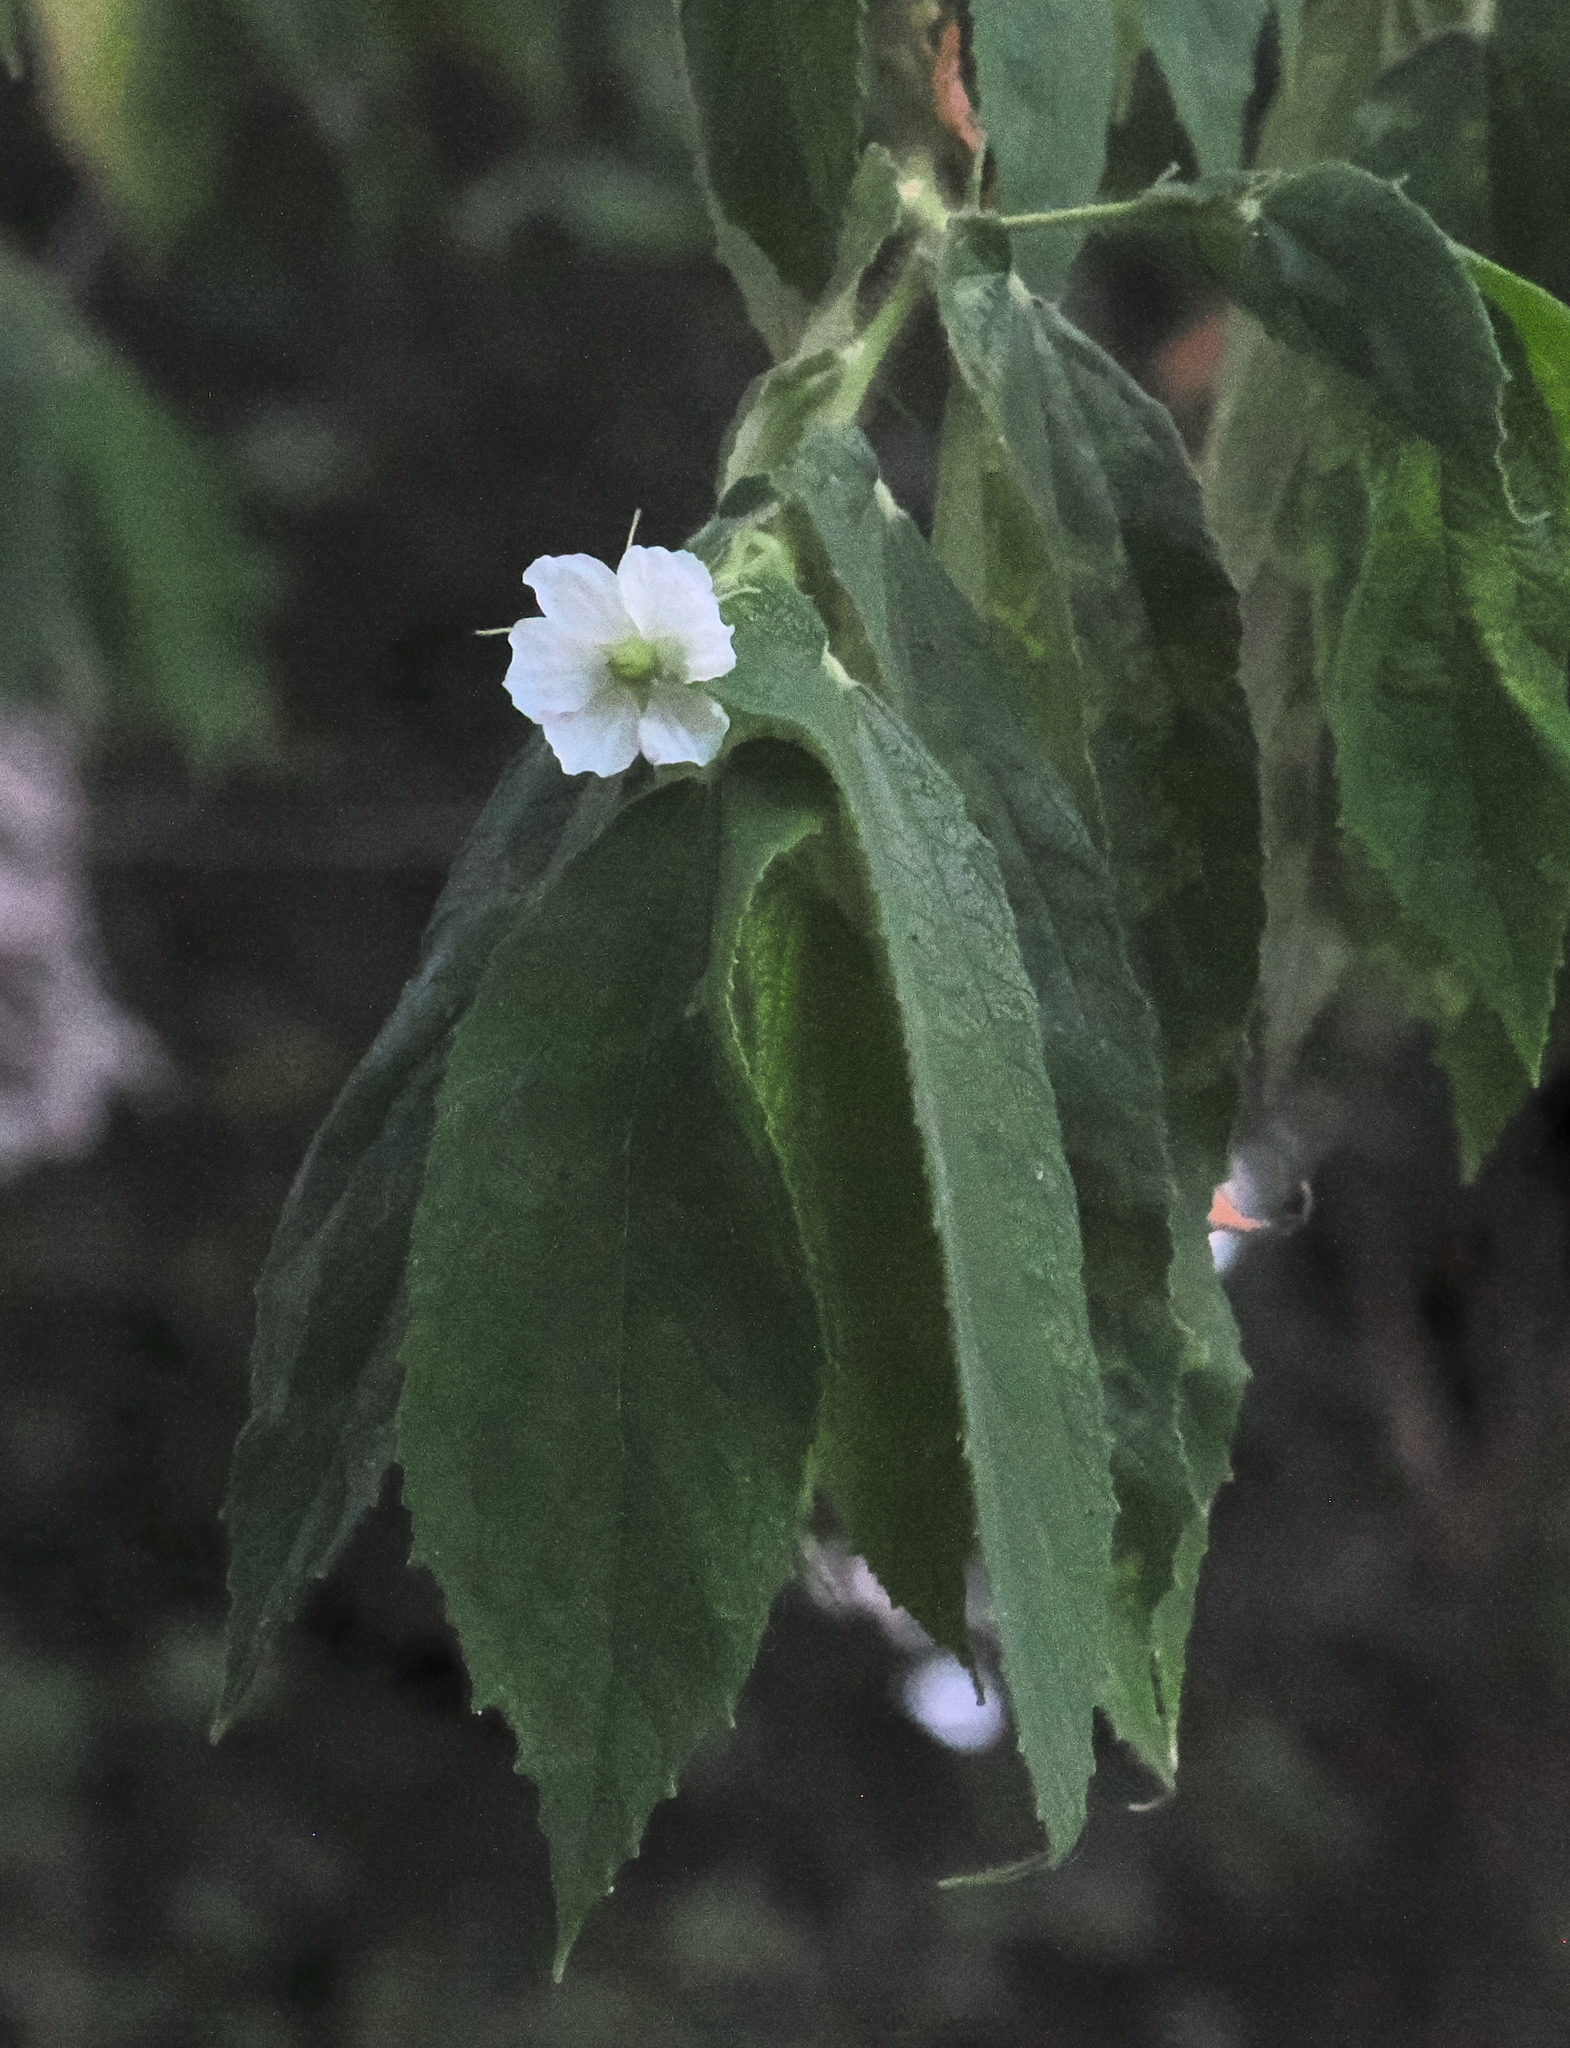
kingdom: Plantae
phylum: Tracheophyta
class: Magnoliopsida
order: Malvales
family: Muntingiaceae
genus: Muntingia
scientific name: Muntingia calabura
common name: Strawberrytree
